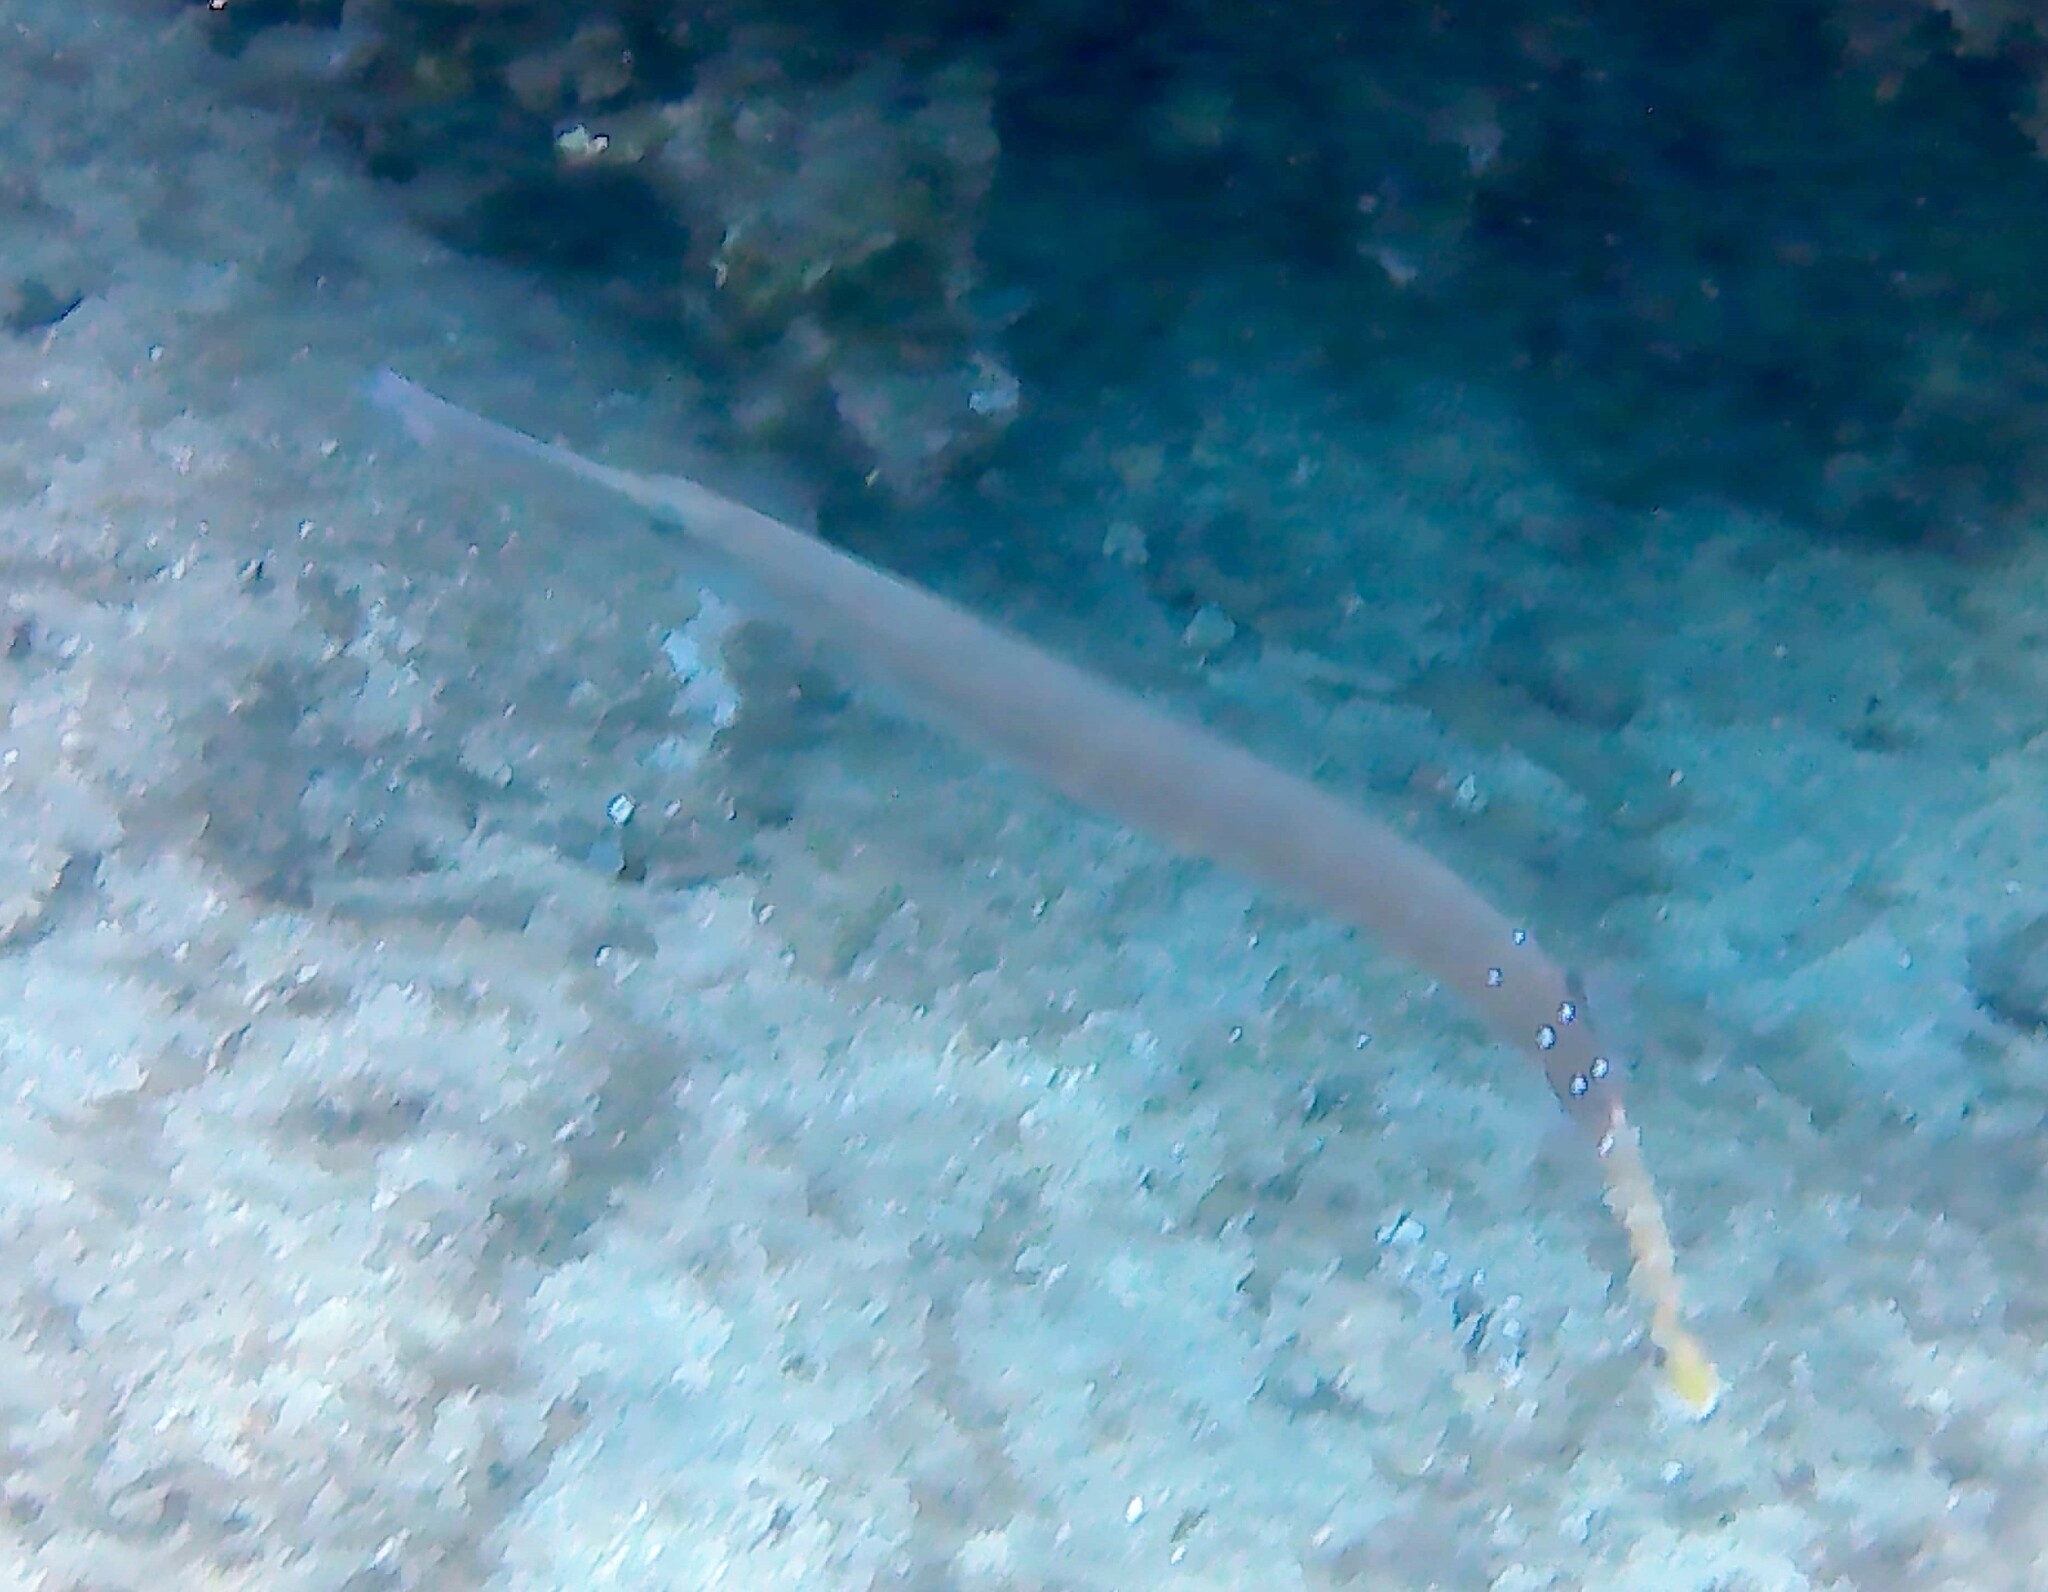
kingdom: Animalia
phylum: Chordata
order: Syngnathiformes
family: Aulostomidae
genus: Aulostomus
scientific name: Aulostomus chinensis
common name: Chinese trumpetfish
